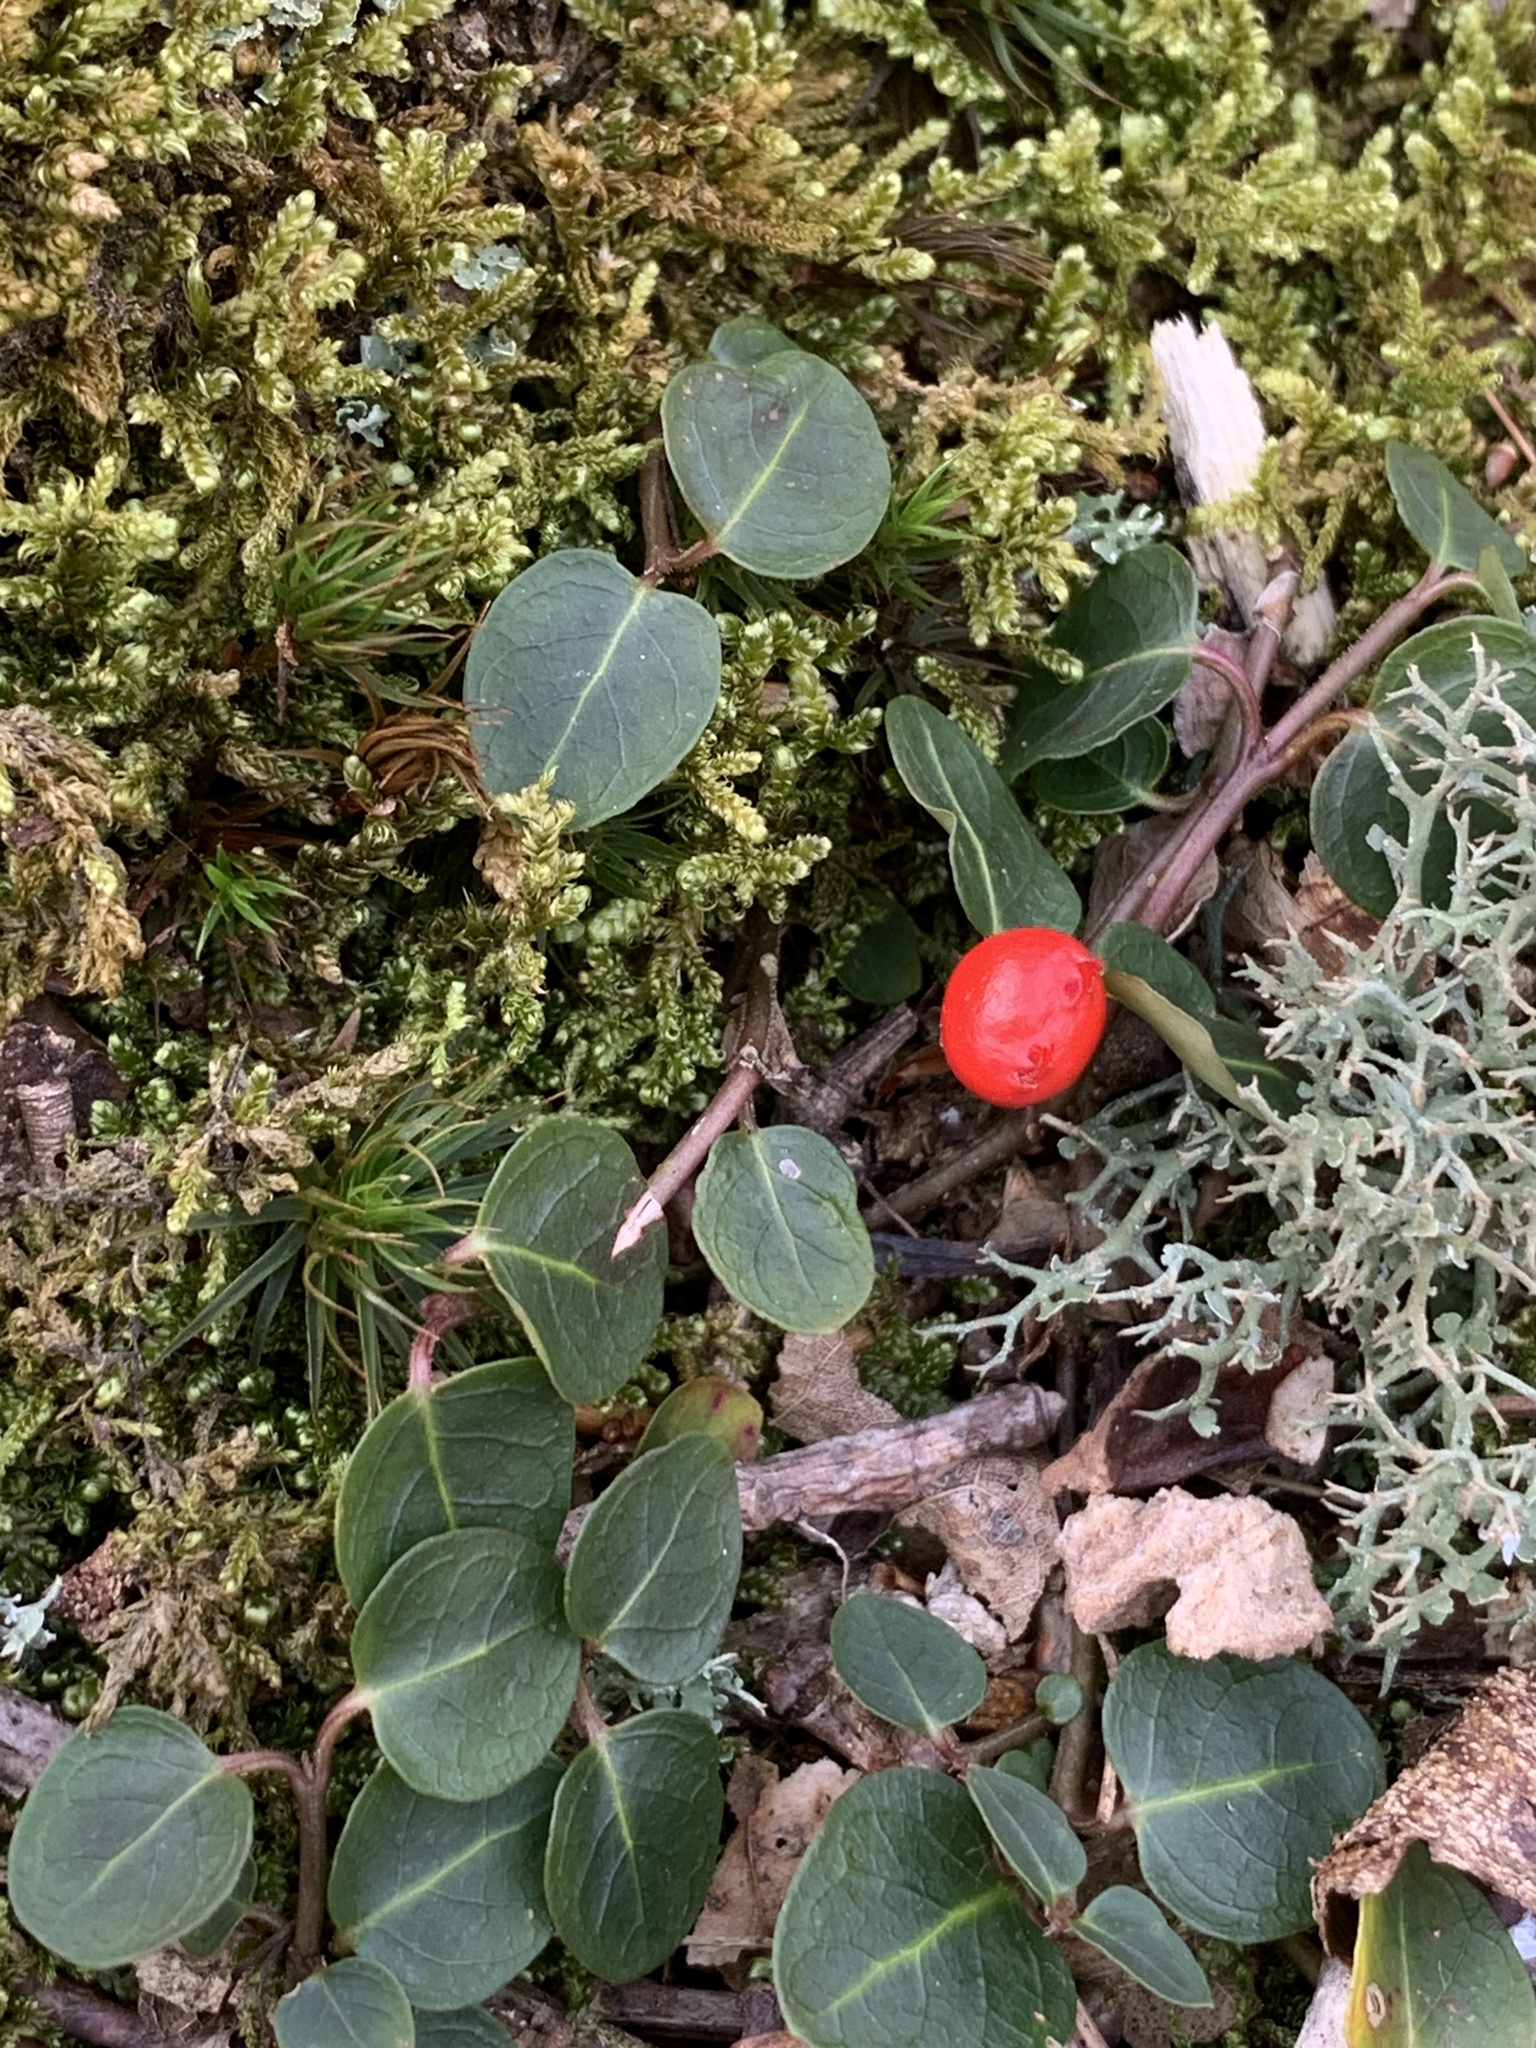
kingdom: Plantae
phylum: Tracheophyta
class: Magnoliopsida
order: Gentianales
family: Rubiaceae
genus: Mitchella
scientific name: Mitchella repens
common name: Partridge-berry
